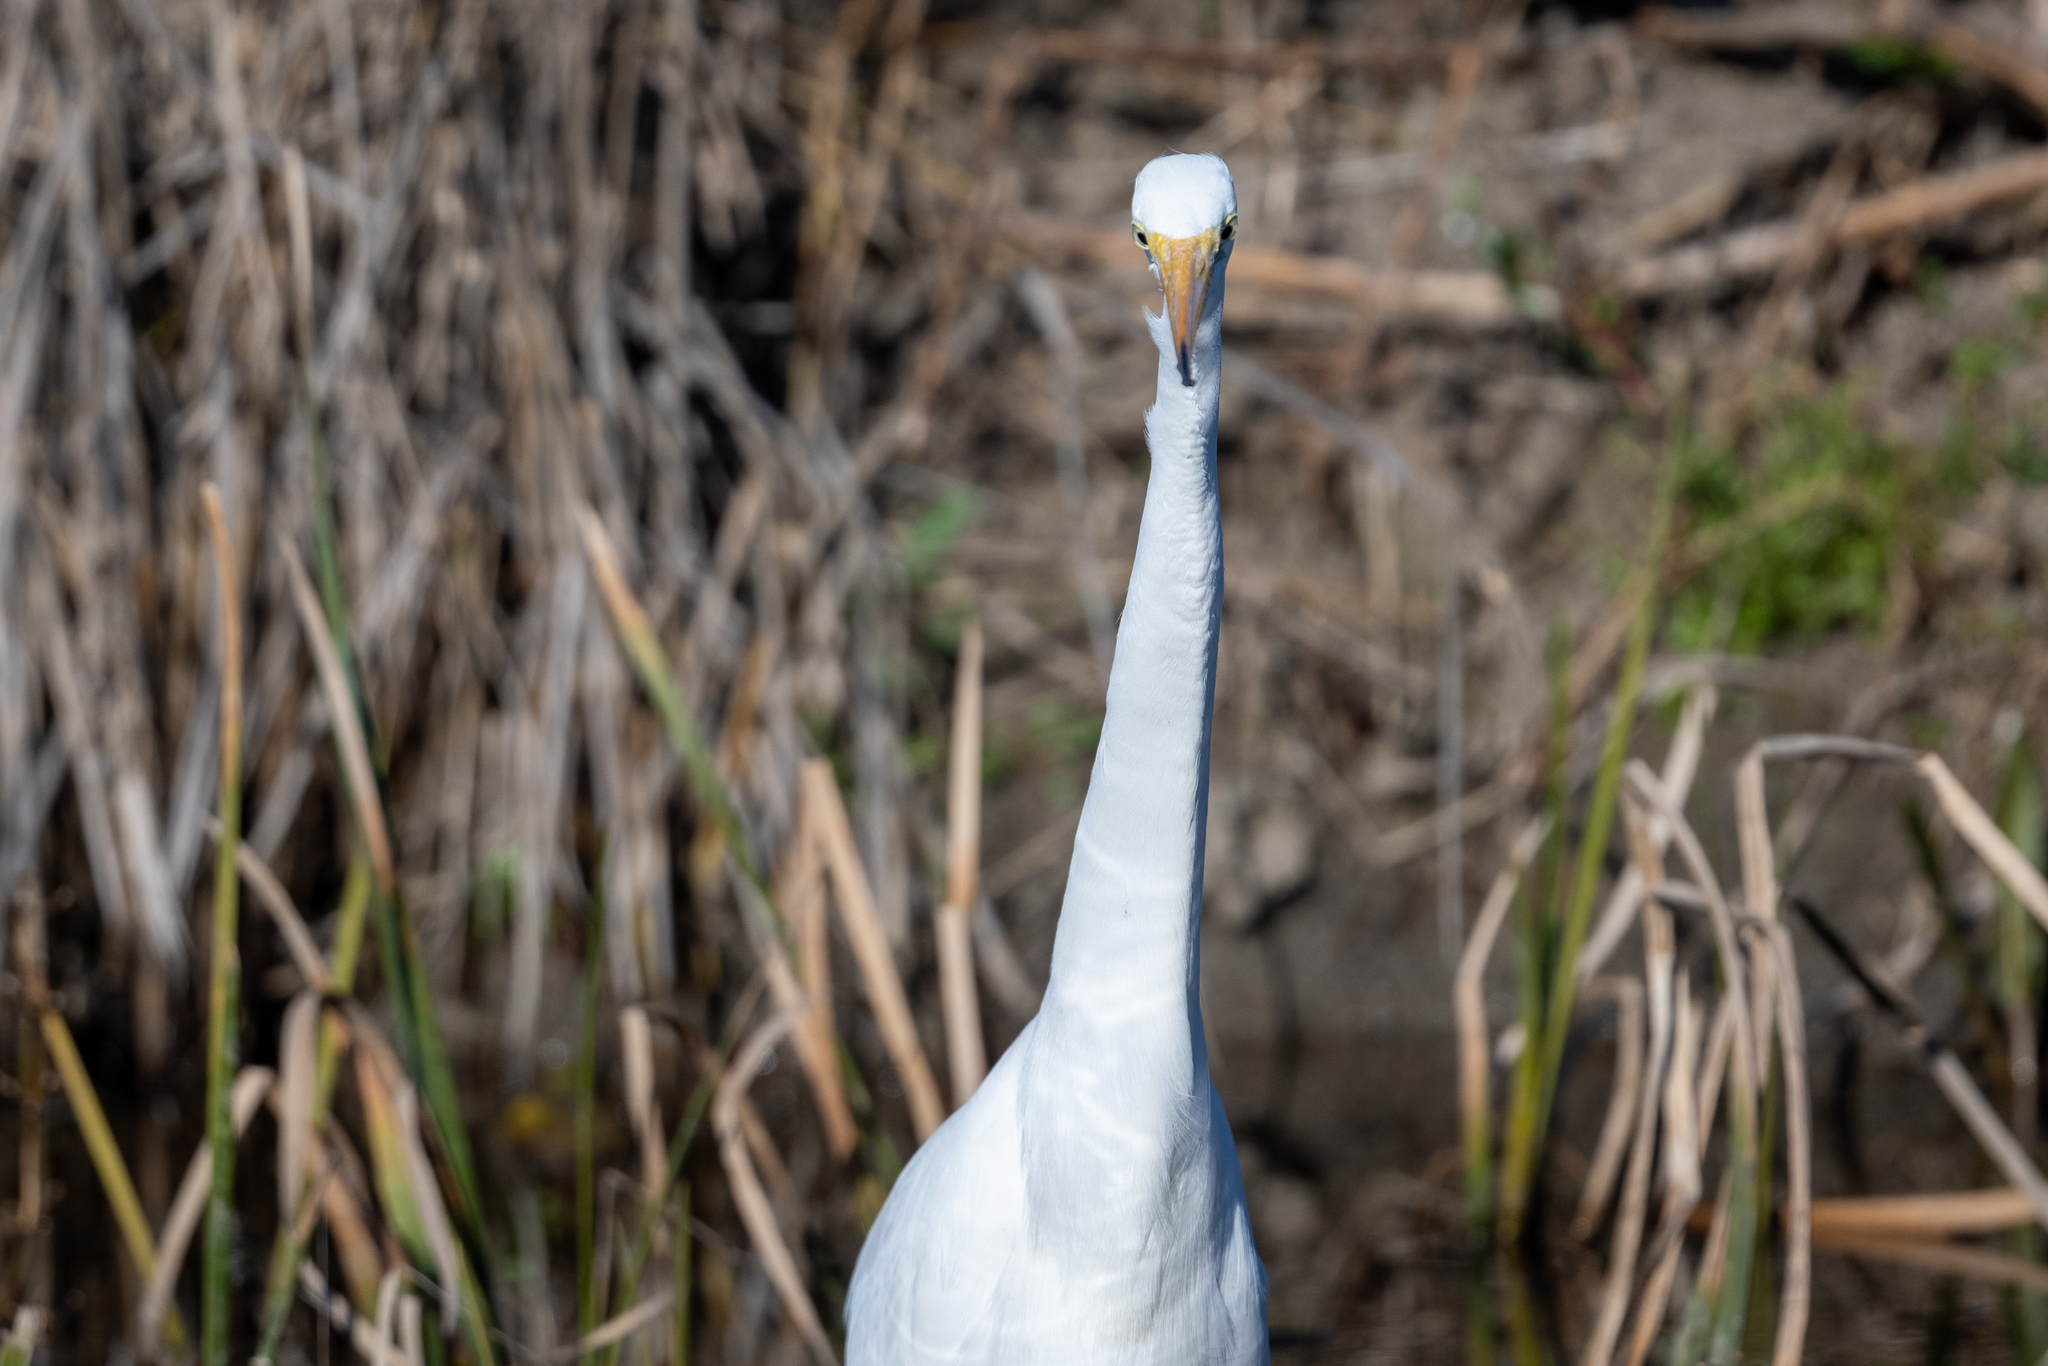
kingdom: Animalia
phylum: Chordata
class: Aves
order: Pelecaniformes
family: Ardeidae
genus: Ardea
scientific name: Ardea alba
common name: Great egret
